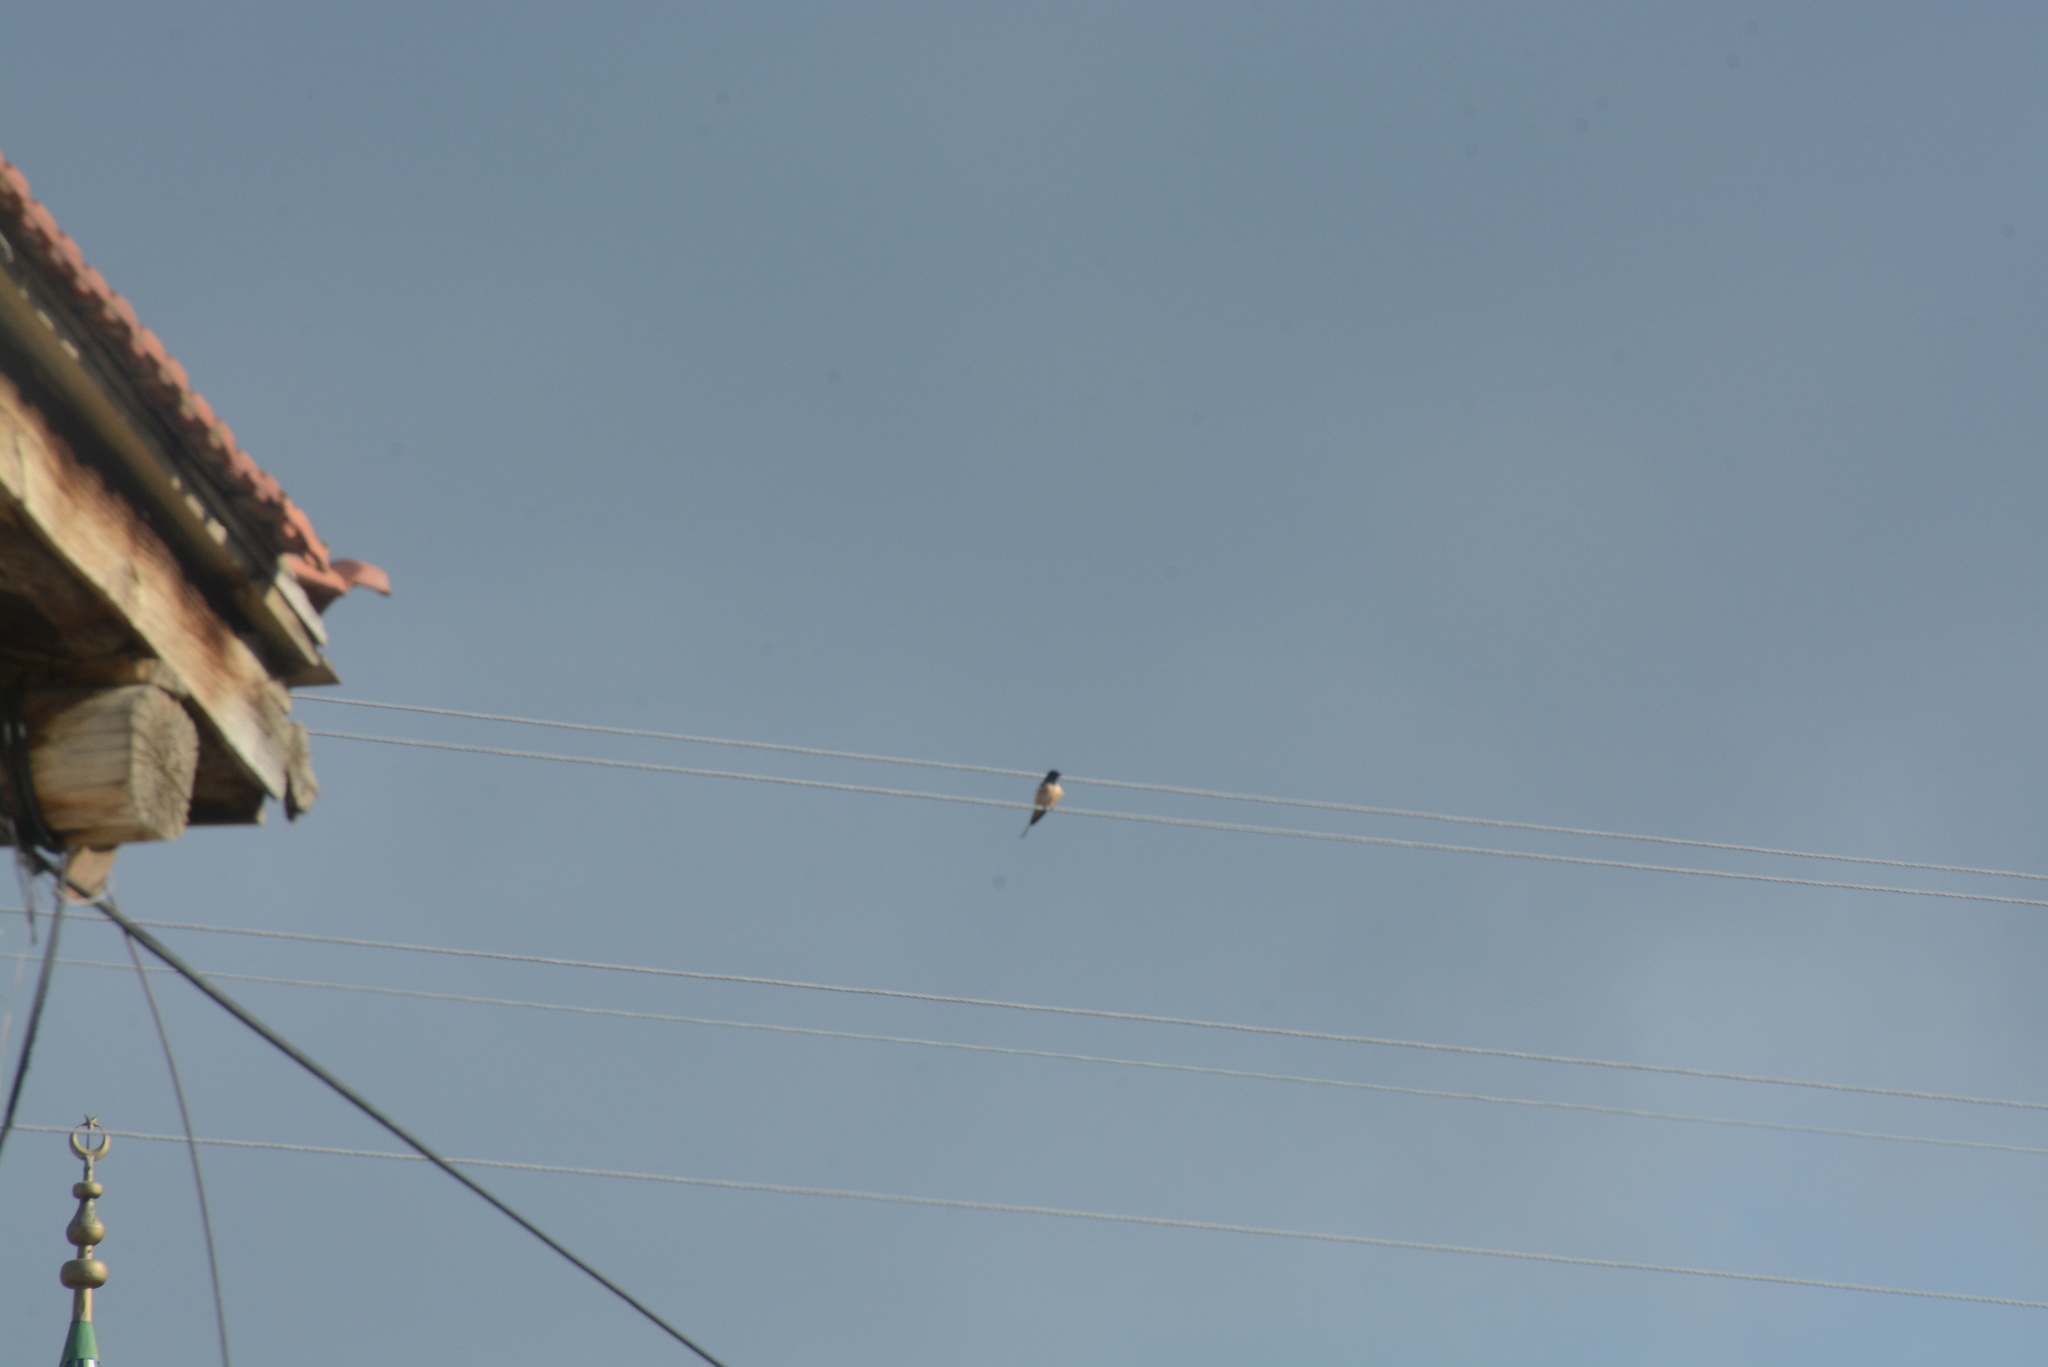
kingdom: Animalia
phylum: Chordata
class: Aves
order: Passeriformes
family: Hirundinidae
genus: Hirundo
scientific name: Hirundo rustica
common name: Barn swallow
